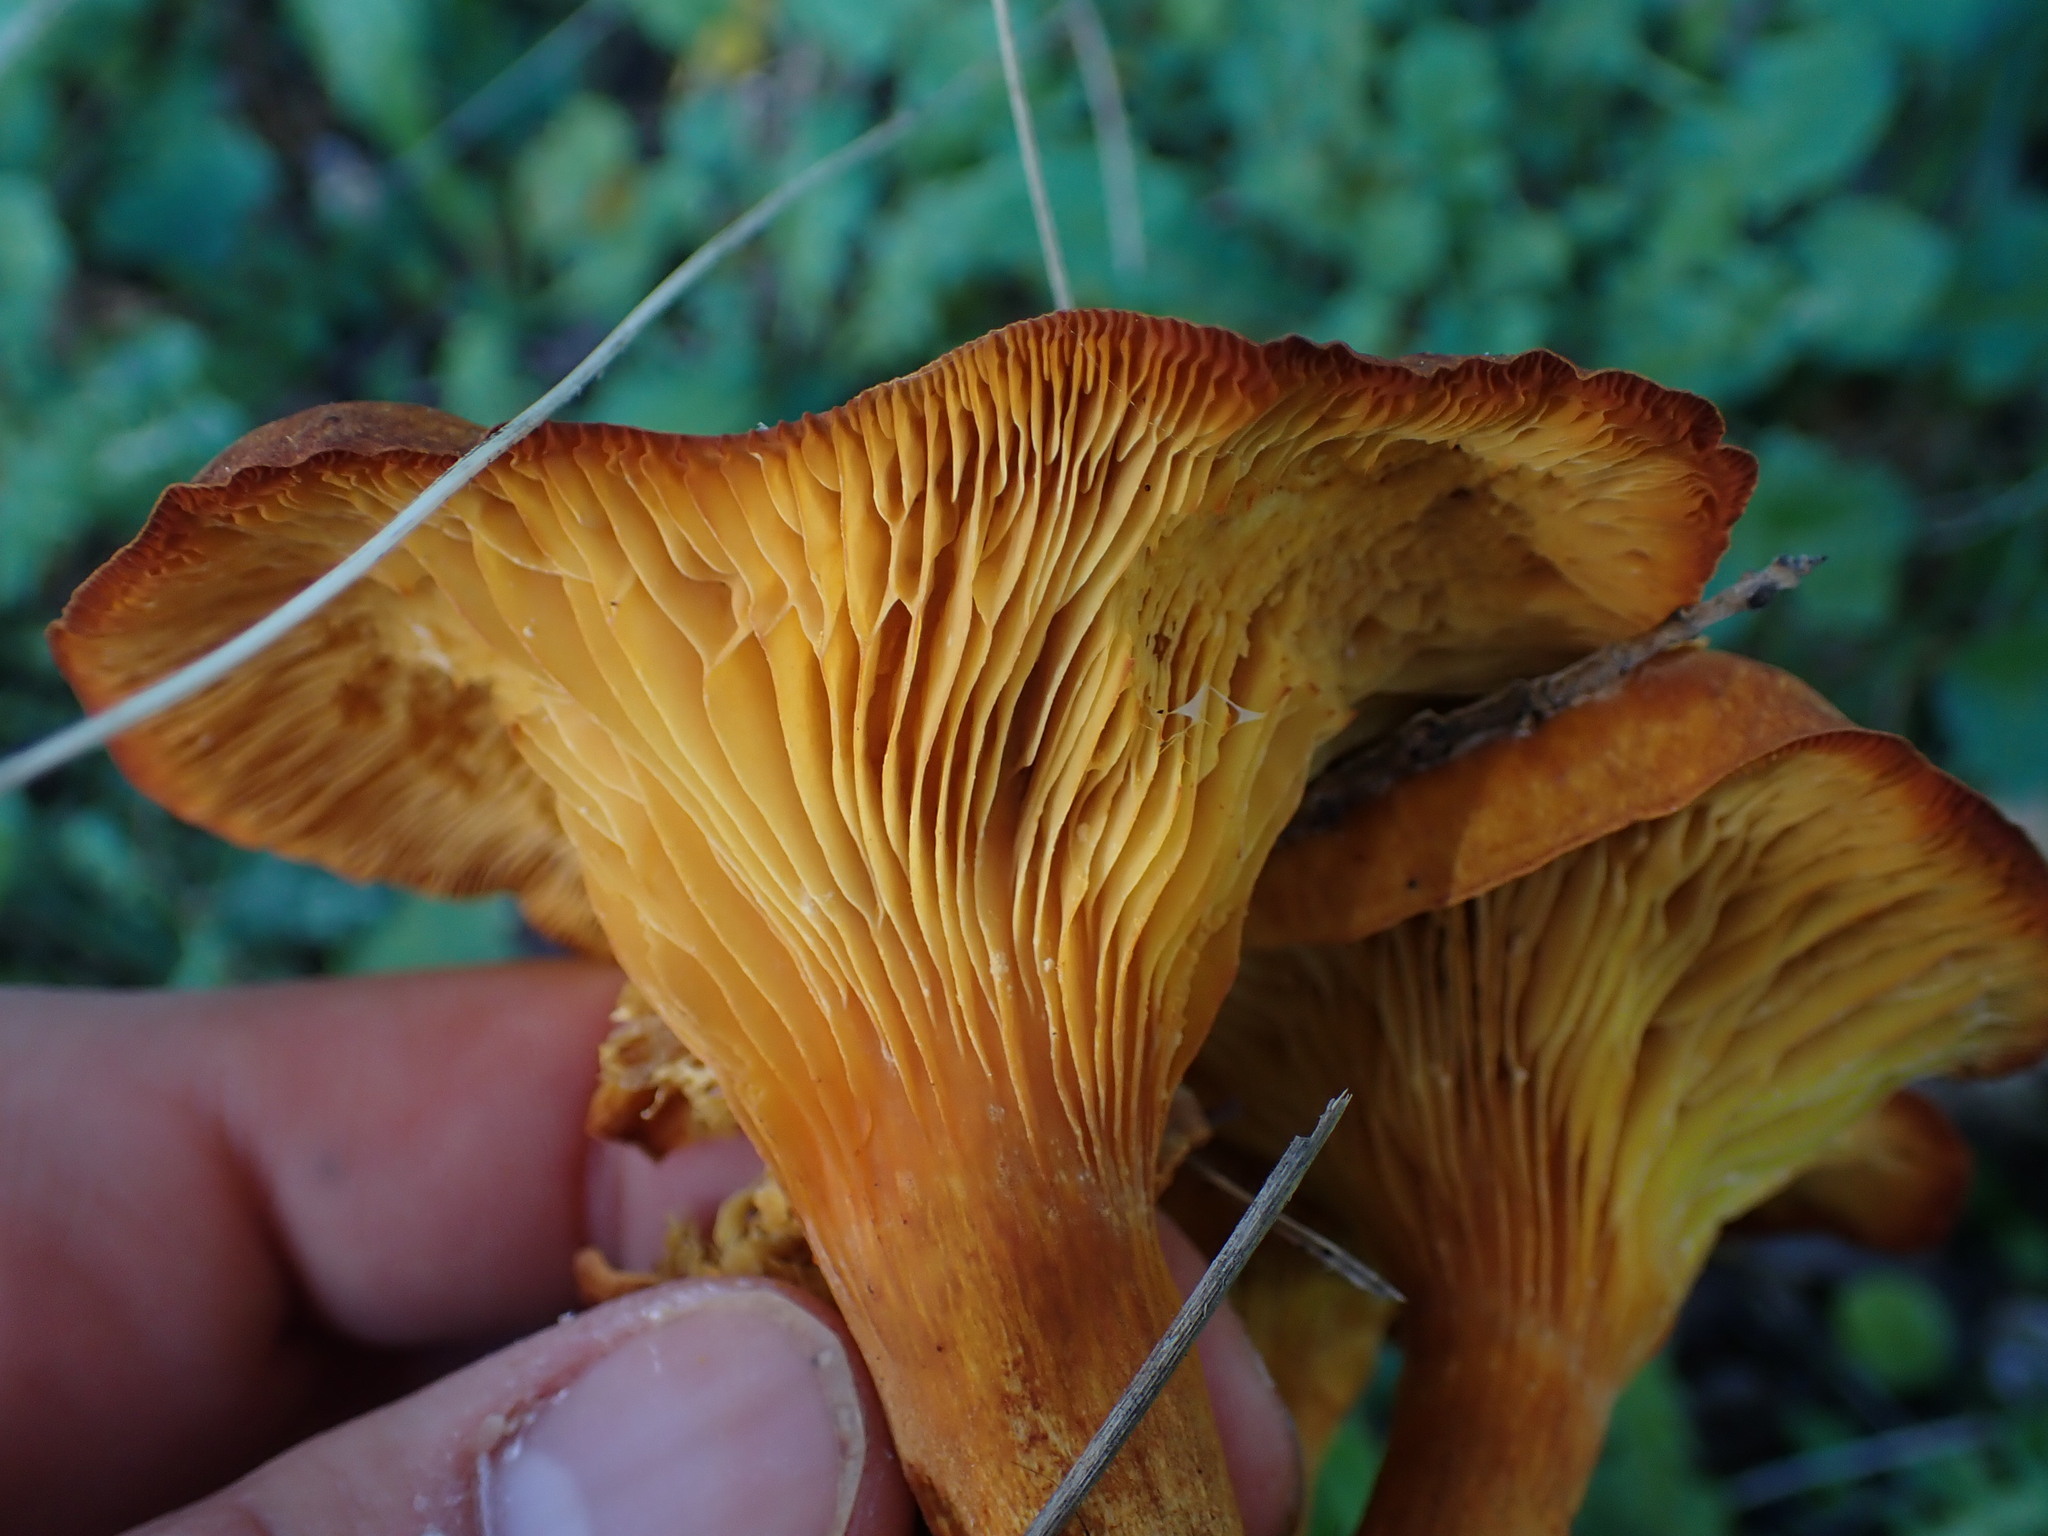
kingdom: Fungi
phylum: Basidiomycota
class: Agaricomycetes
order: Agaricales
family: Omphalotaceae
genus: Omphalotus
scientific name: Omphalotus olearius
